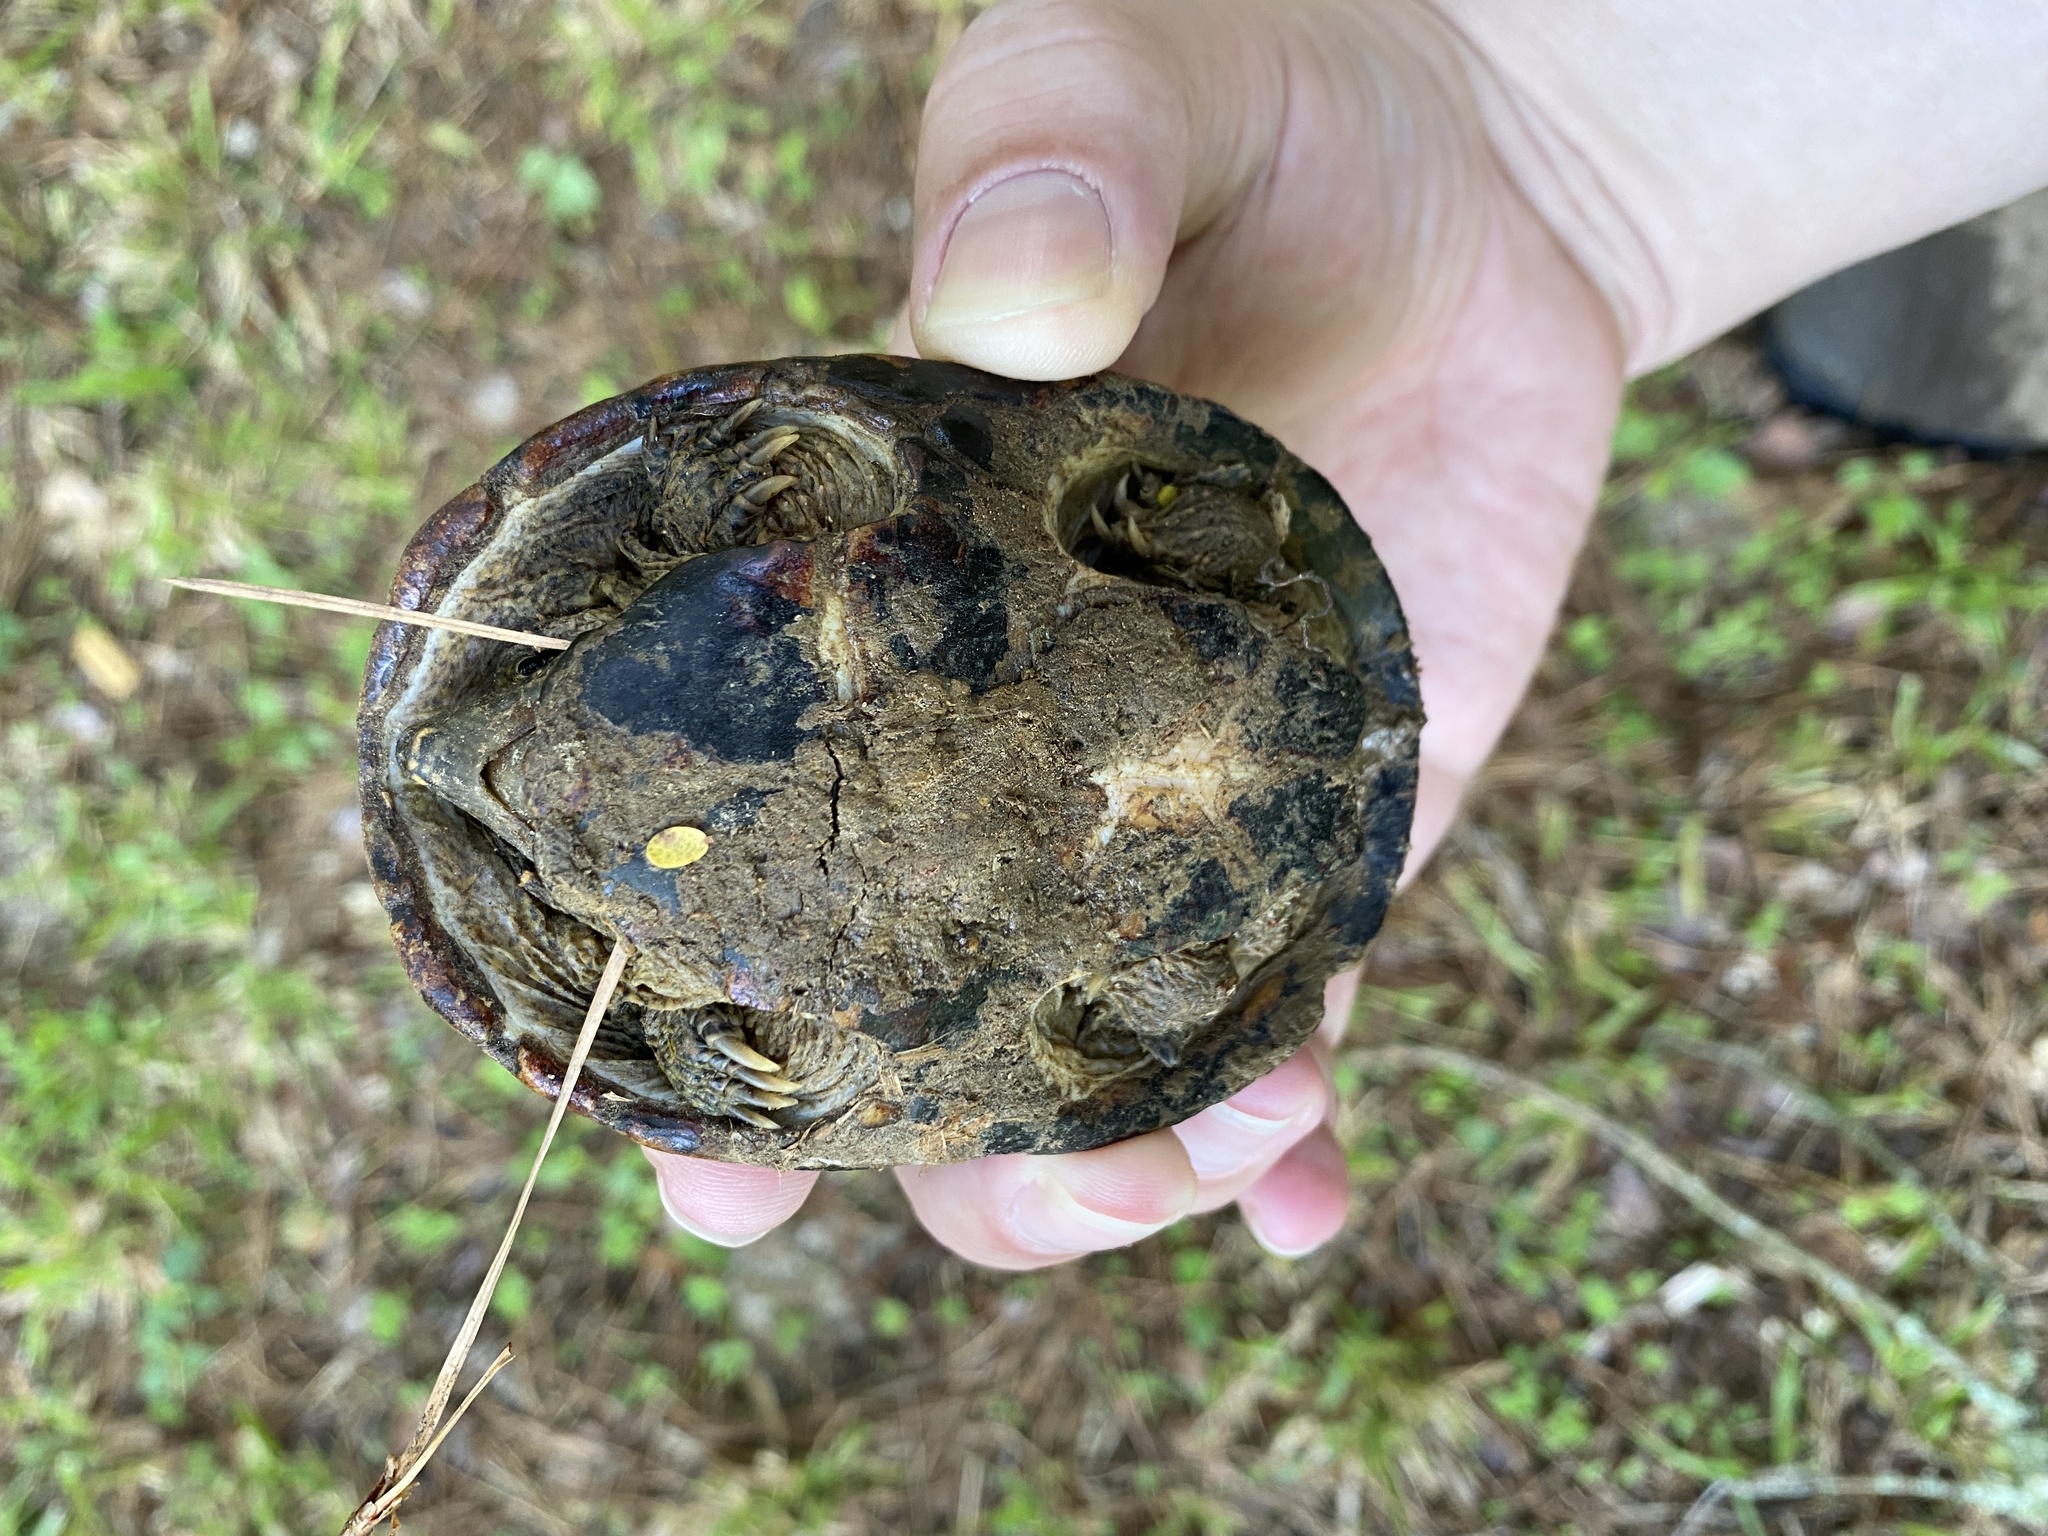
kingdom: Animalia
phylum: Chordata
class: Testudines
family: Kinosternidae
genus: Sternotherus
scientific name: Sternotherus odoratus
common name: Common musk turtle
